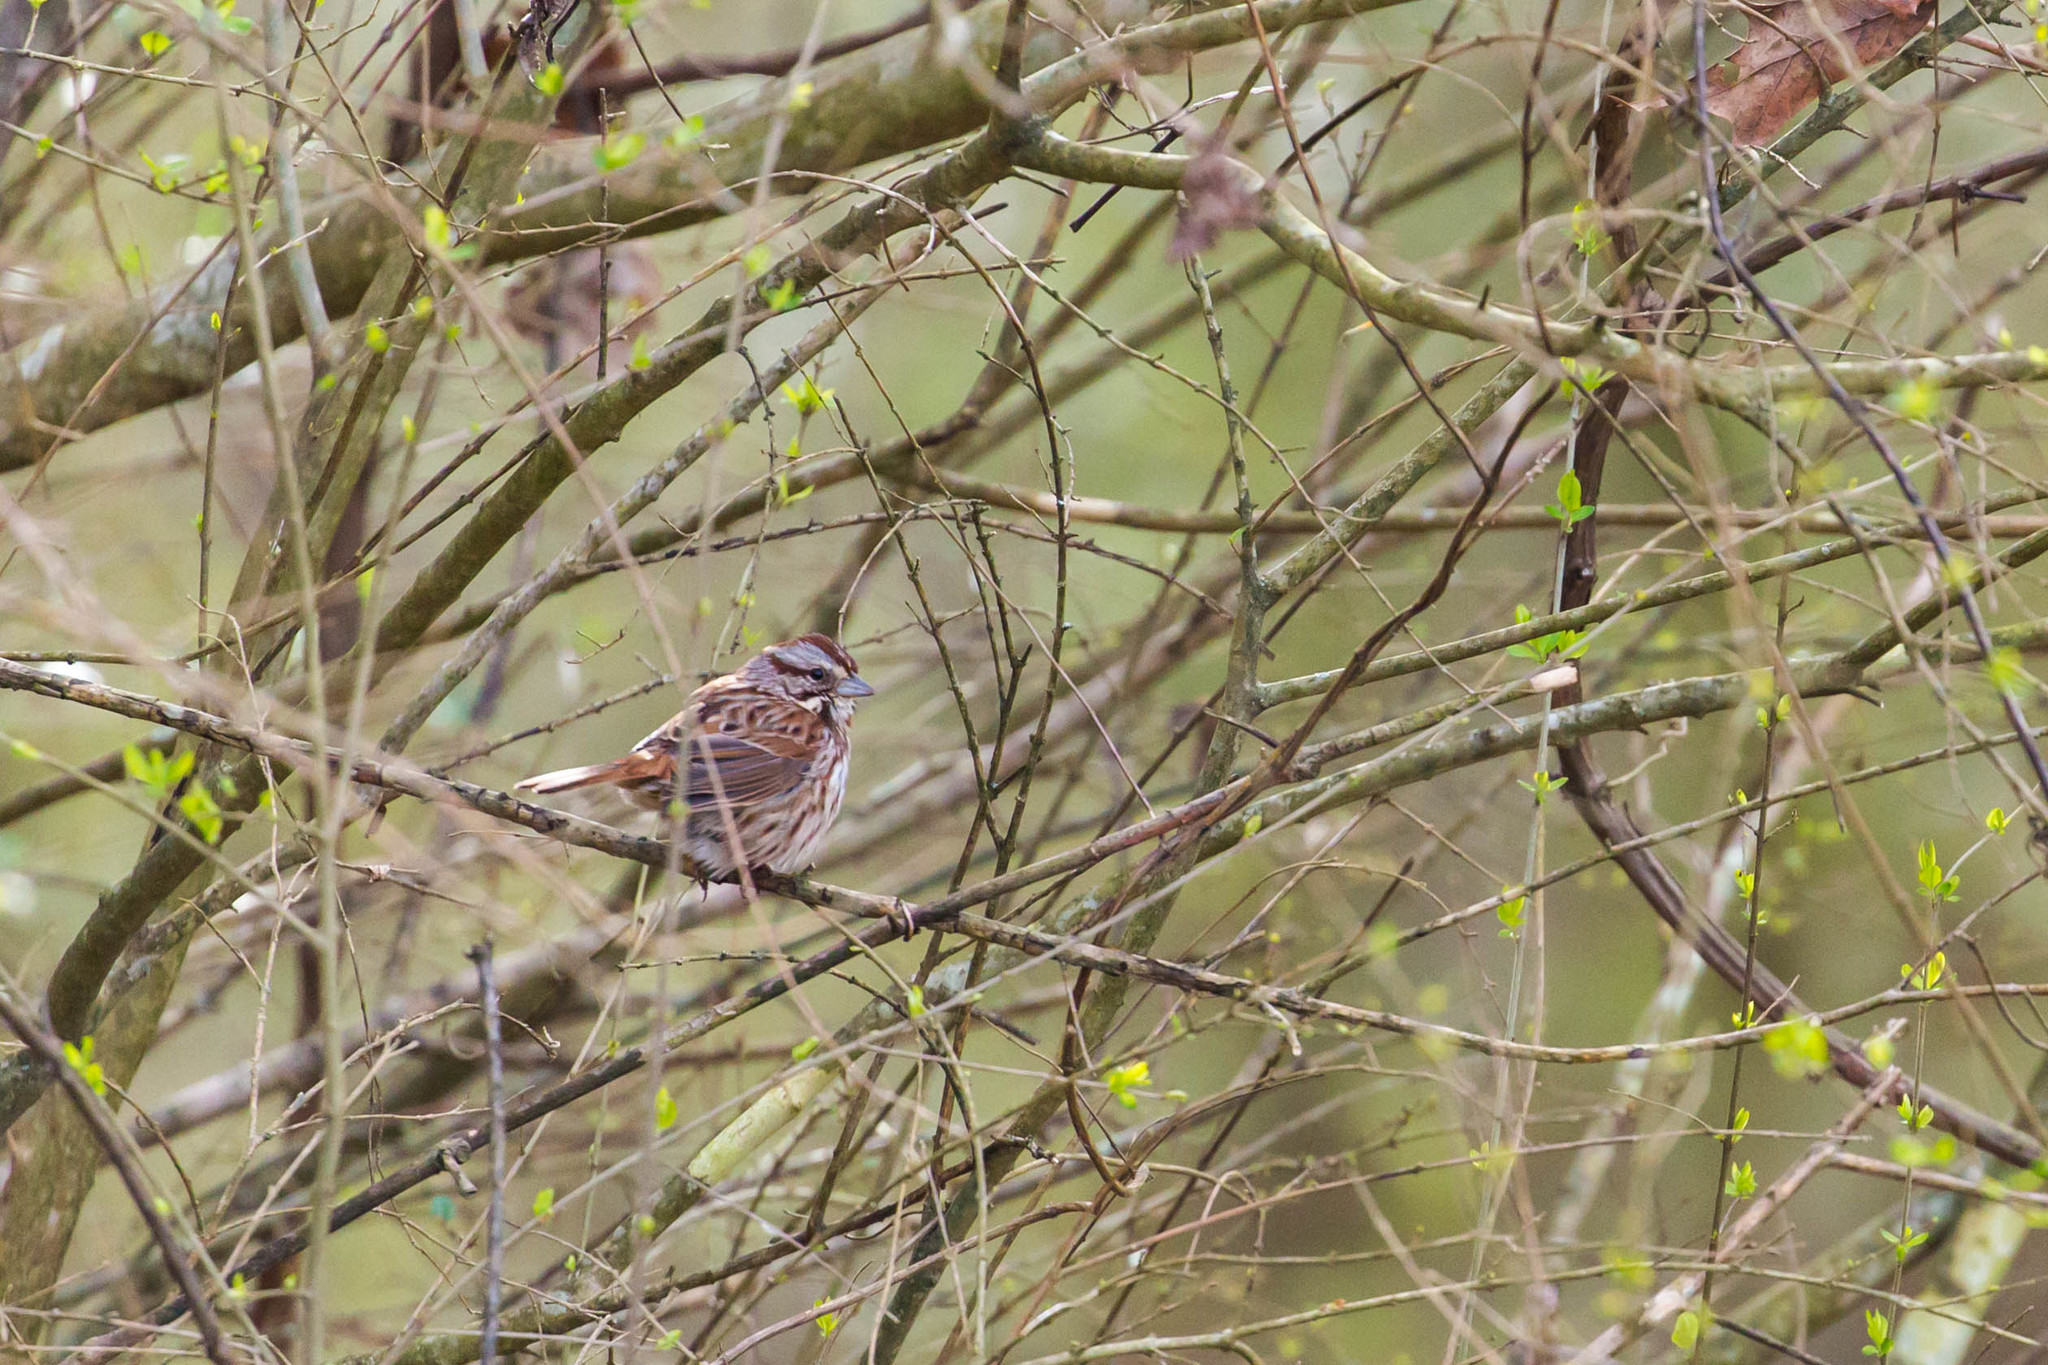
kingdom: Animalia
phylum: Chordata
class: Aves
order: Passeriformes
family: Passerellidae
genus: Melospiza
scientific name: Melospiza melodia
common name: Song sparrow
